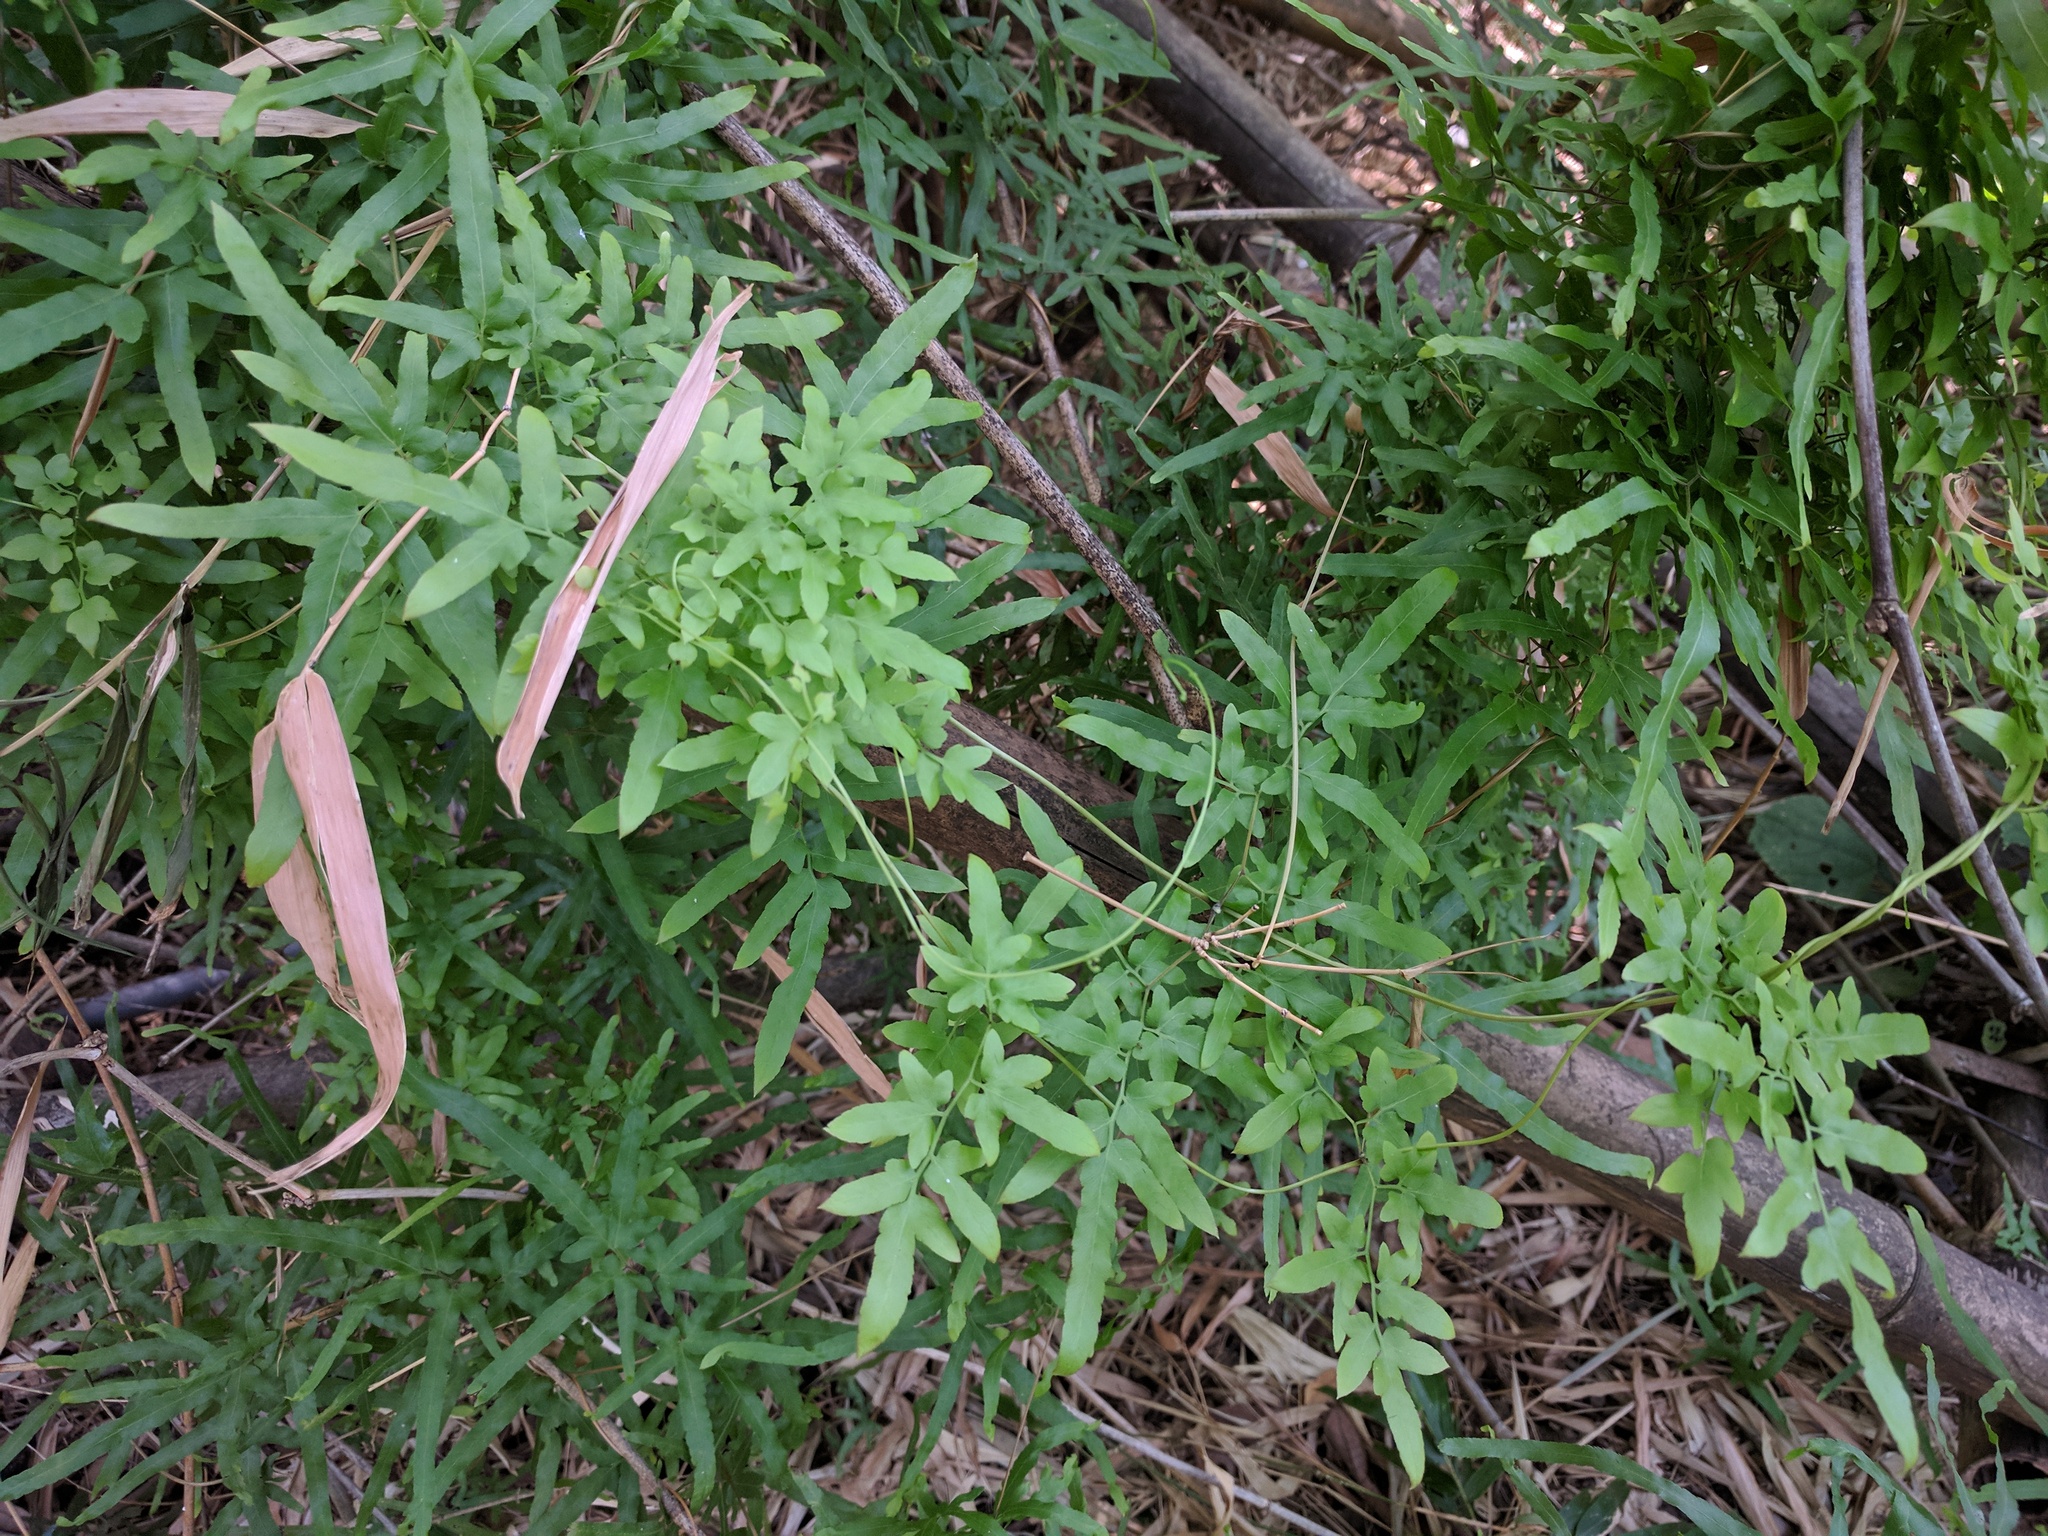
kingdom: Plantae
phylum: Tracheophyta
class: Polypodiopsida
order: Schizaeales
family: Lygodiaceae
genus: Lygodium
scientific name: Lygodium japonicum
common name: Japanese climbing fern
